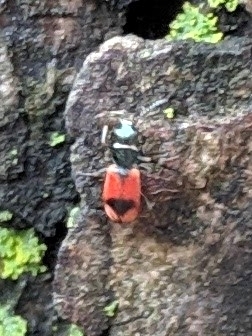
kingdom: Animalia
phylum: Arthropoda
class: Insecta
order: Coleoptera
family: Melyridae
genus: Anthocomus
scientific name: Anthocomus equestris
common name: Black-banded soft-winged flower beetle
